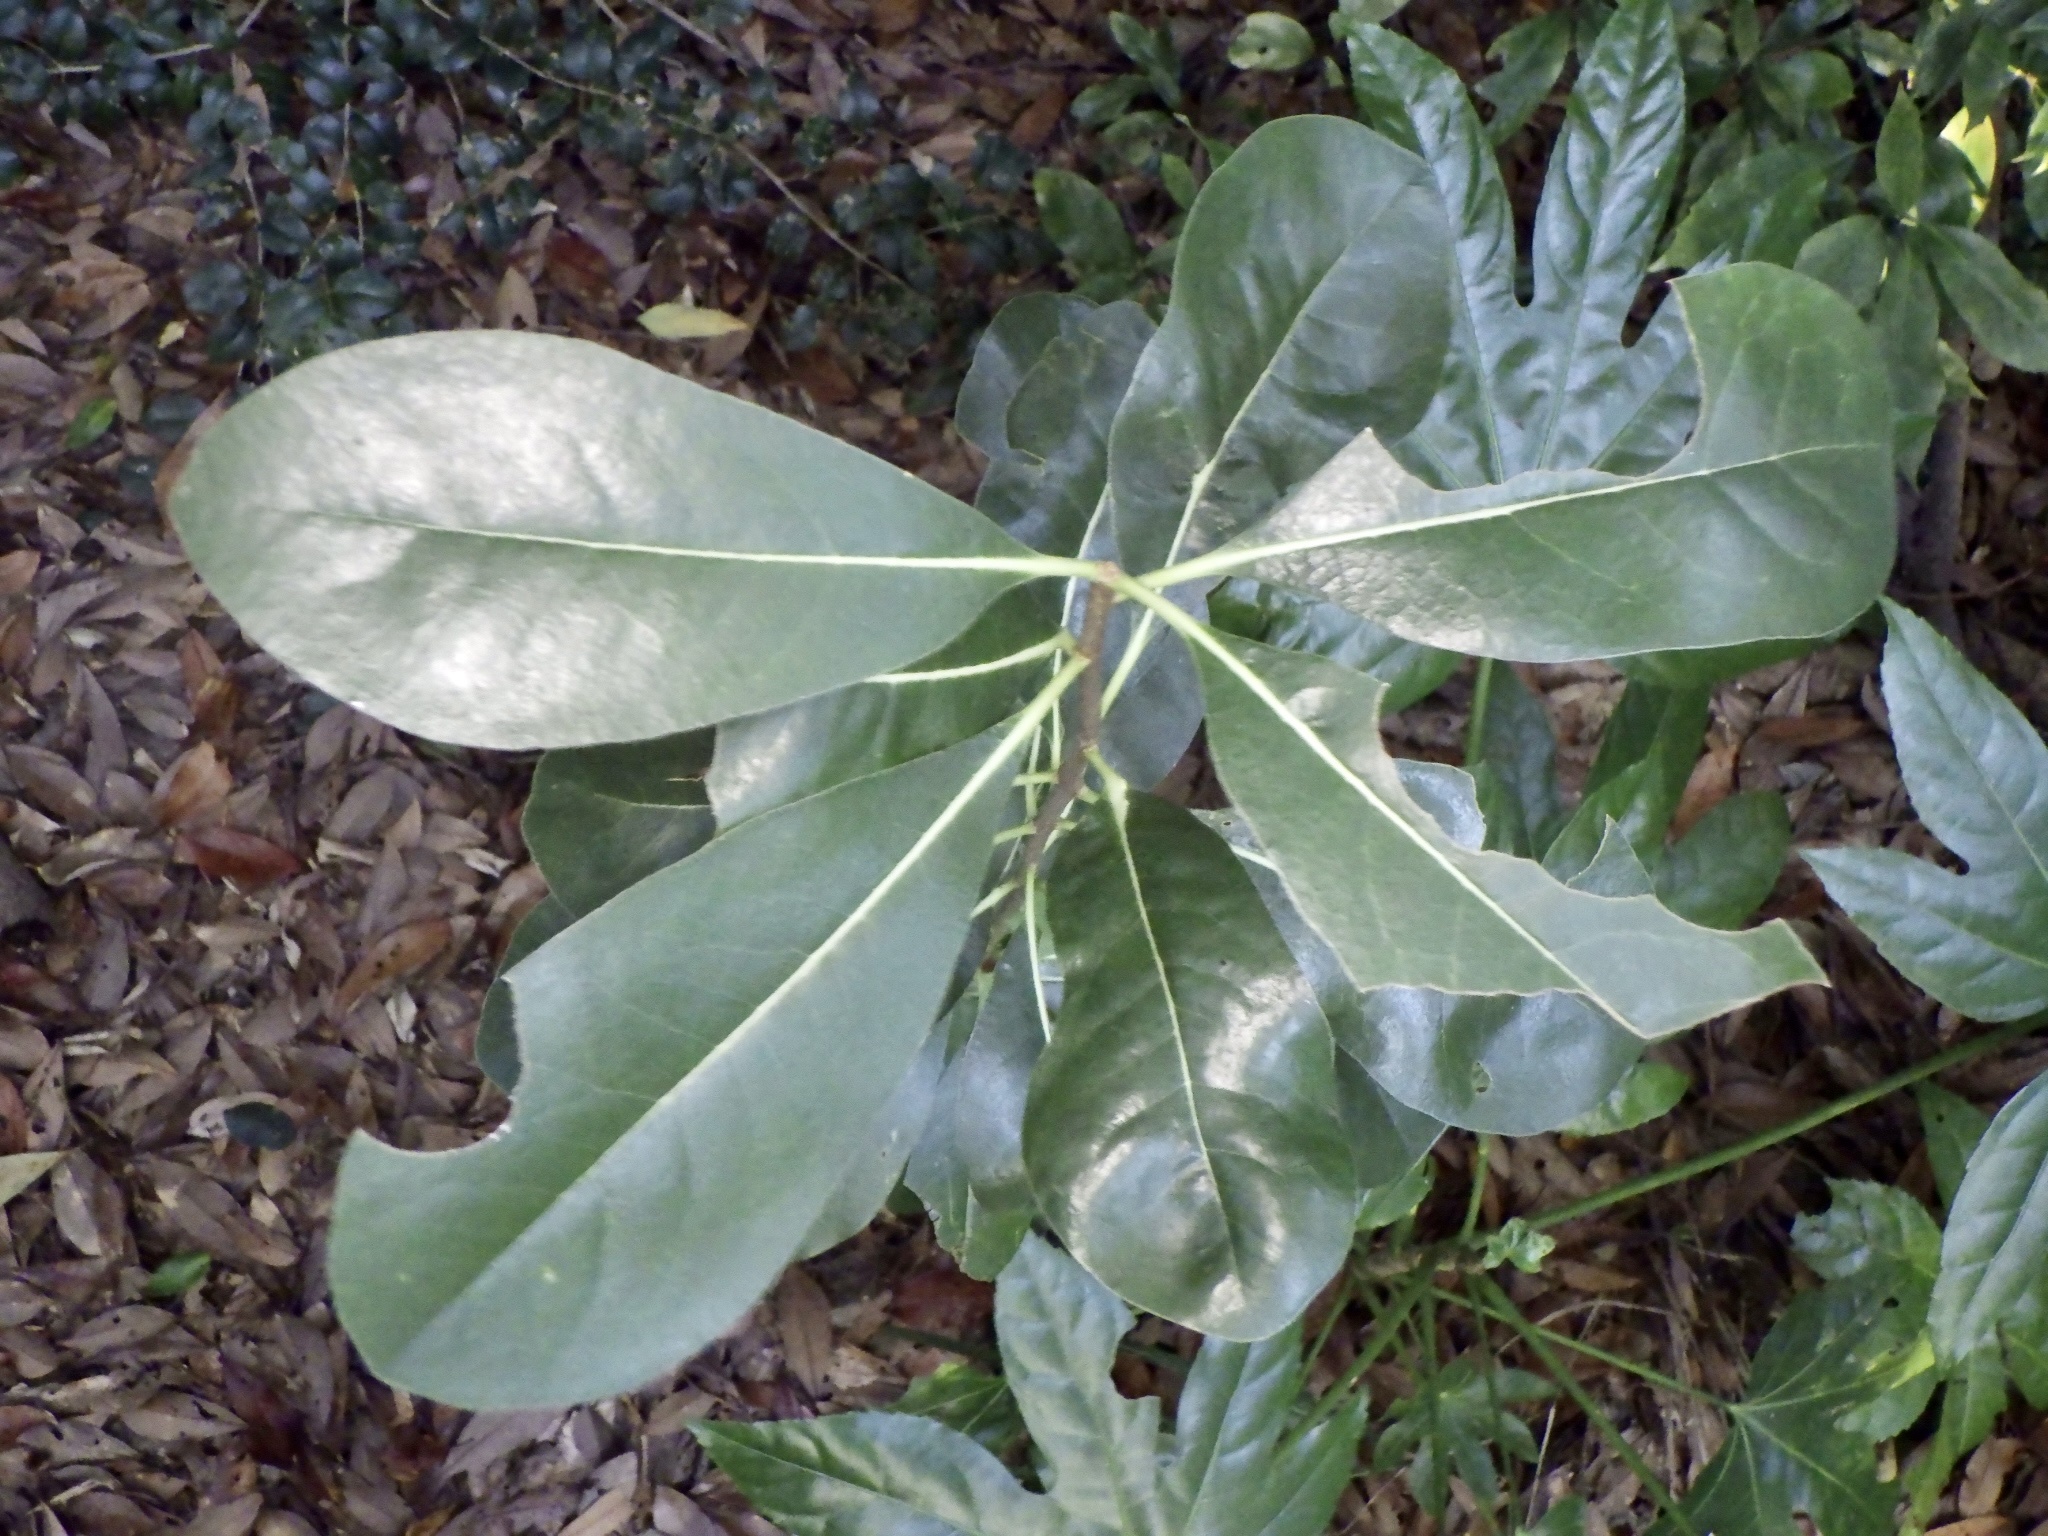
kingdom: Plantae
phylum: Tracheophyta
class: Magnoliopsida
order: Apiales
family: Pittosporaceae
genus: Pittosporum
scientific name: Pittosporum tobira
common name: Japanese cheesewood
